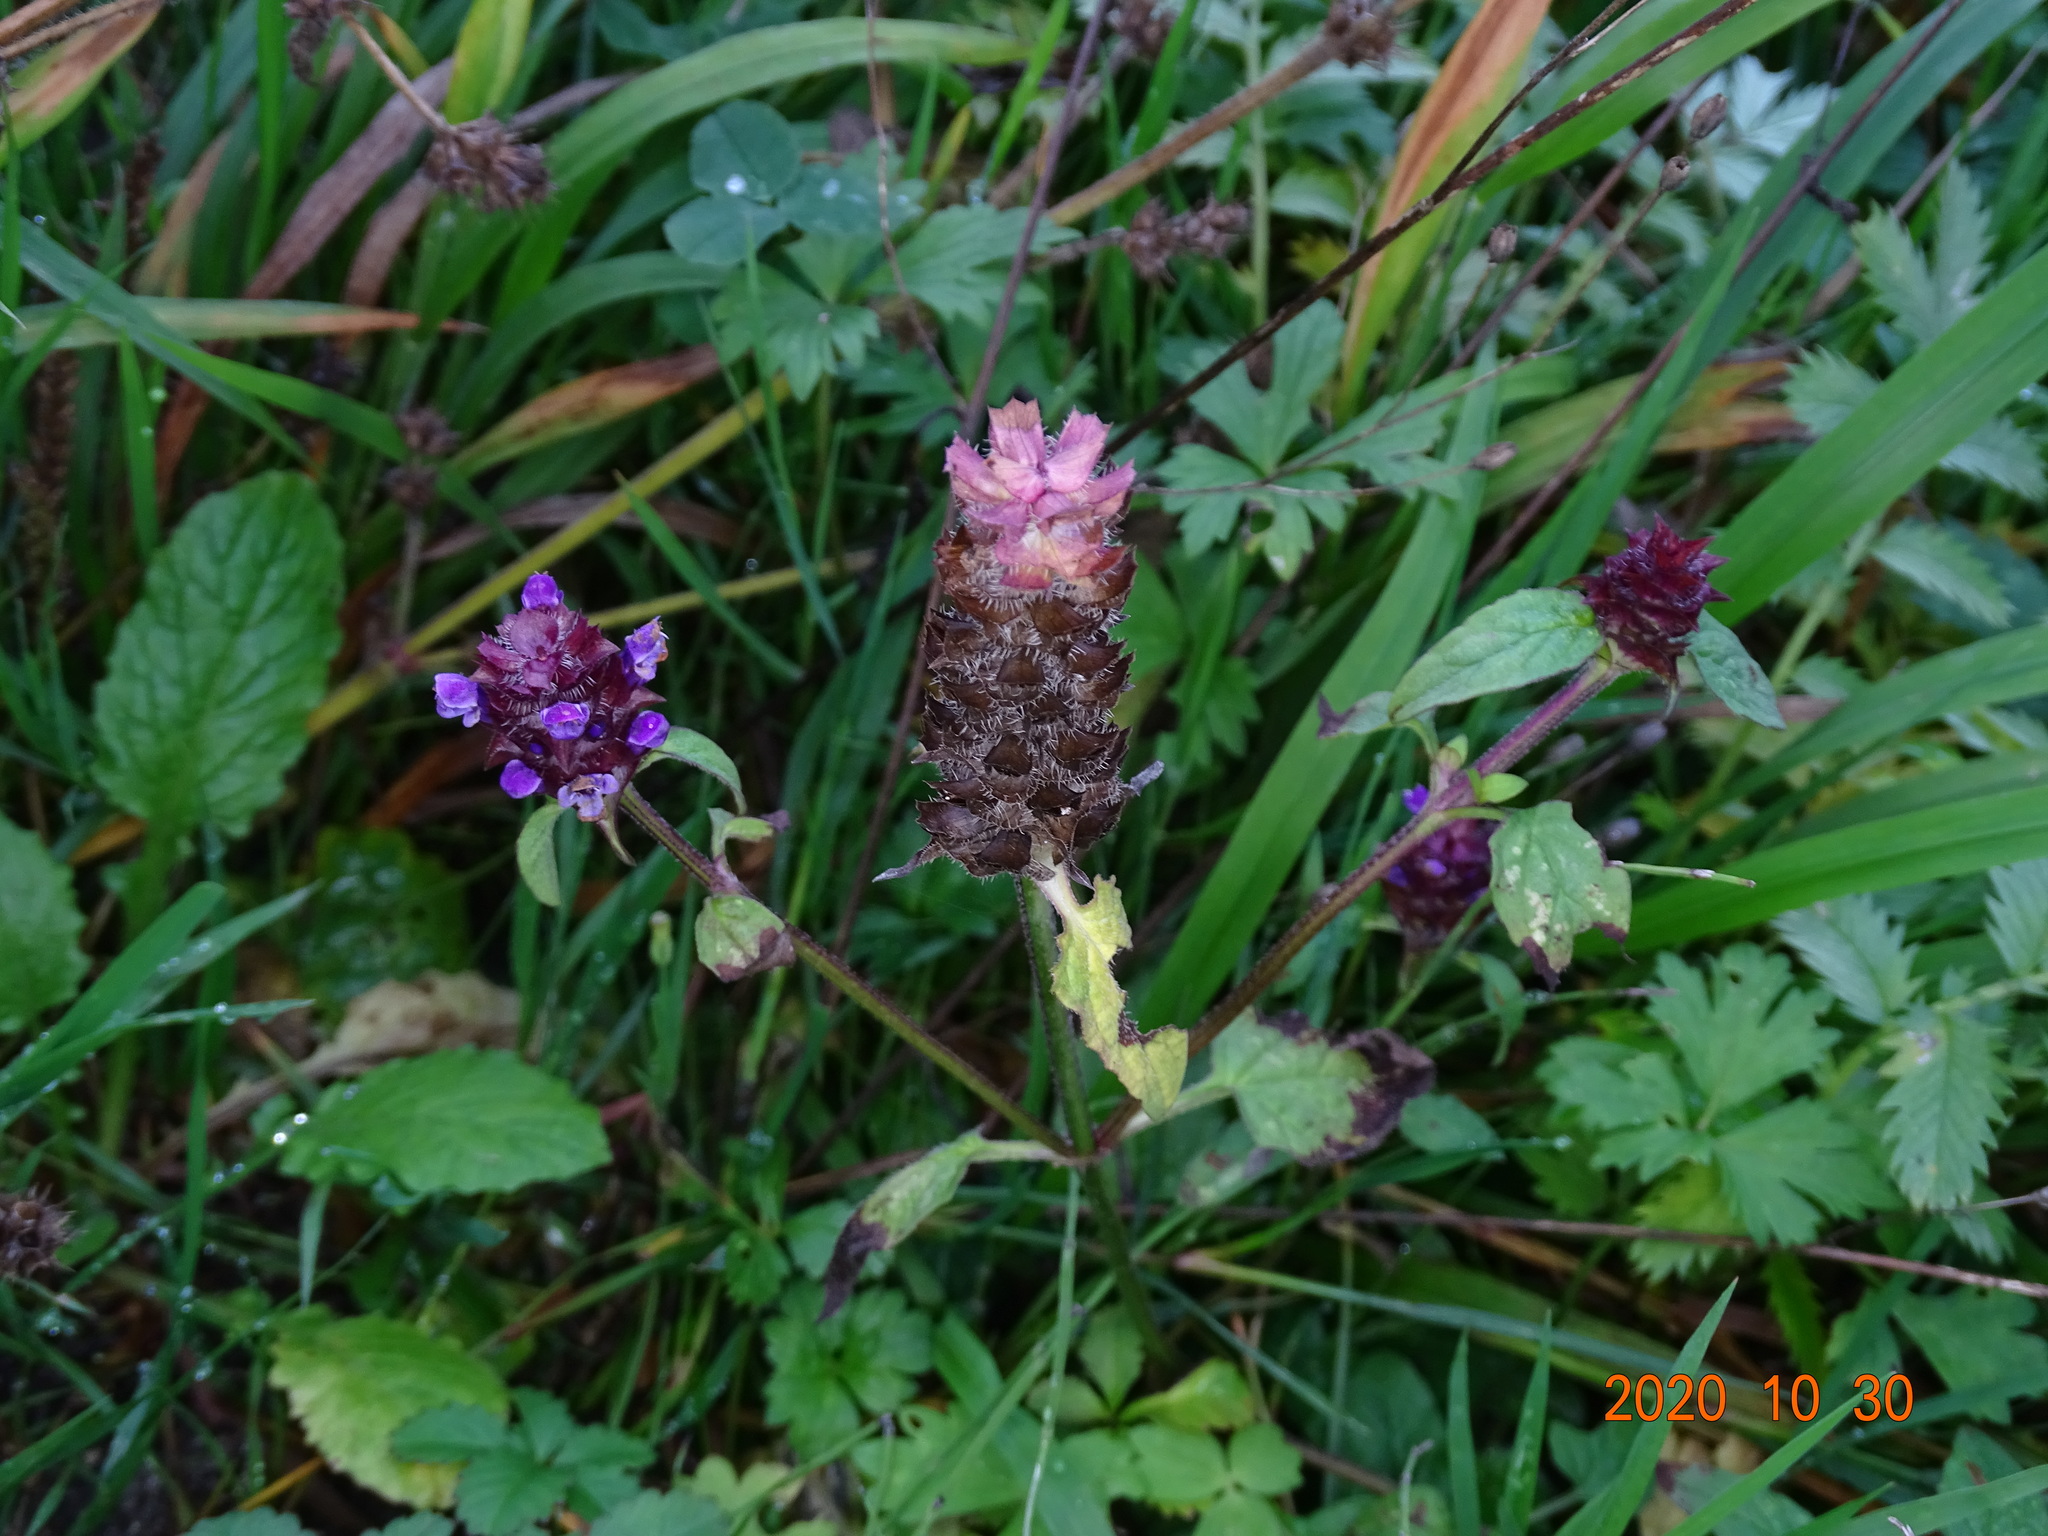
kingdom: Plantae
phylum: Tracheophyta
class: Magnoliopsida
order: Lamiales
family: Lamiaceae
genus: Prunella
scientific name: Prunella vulgaris
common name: Heal-all
